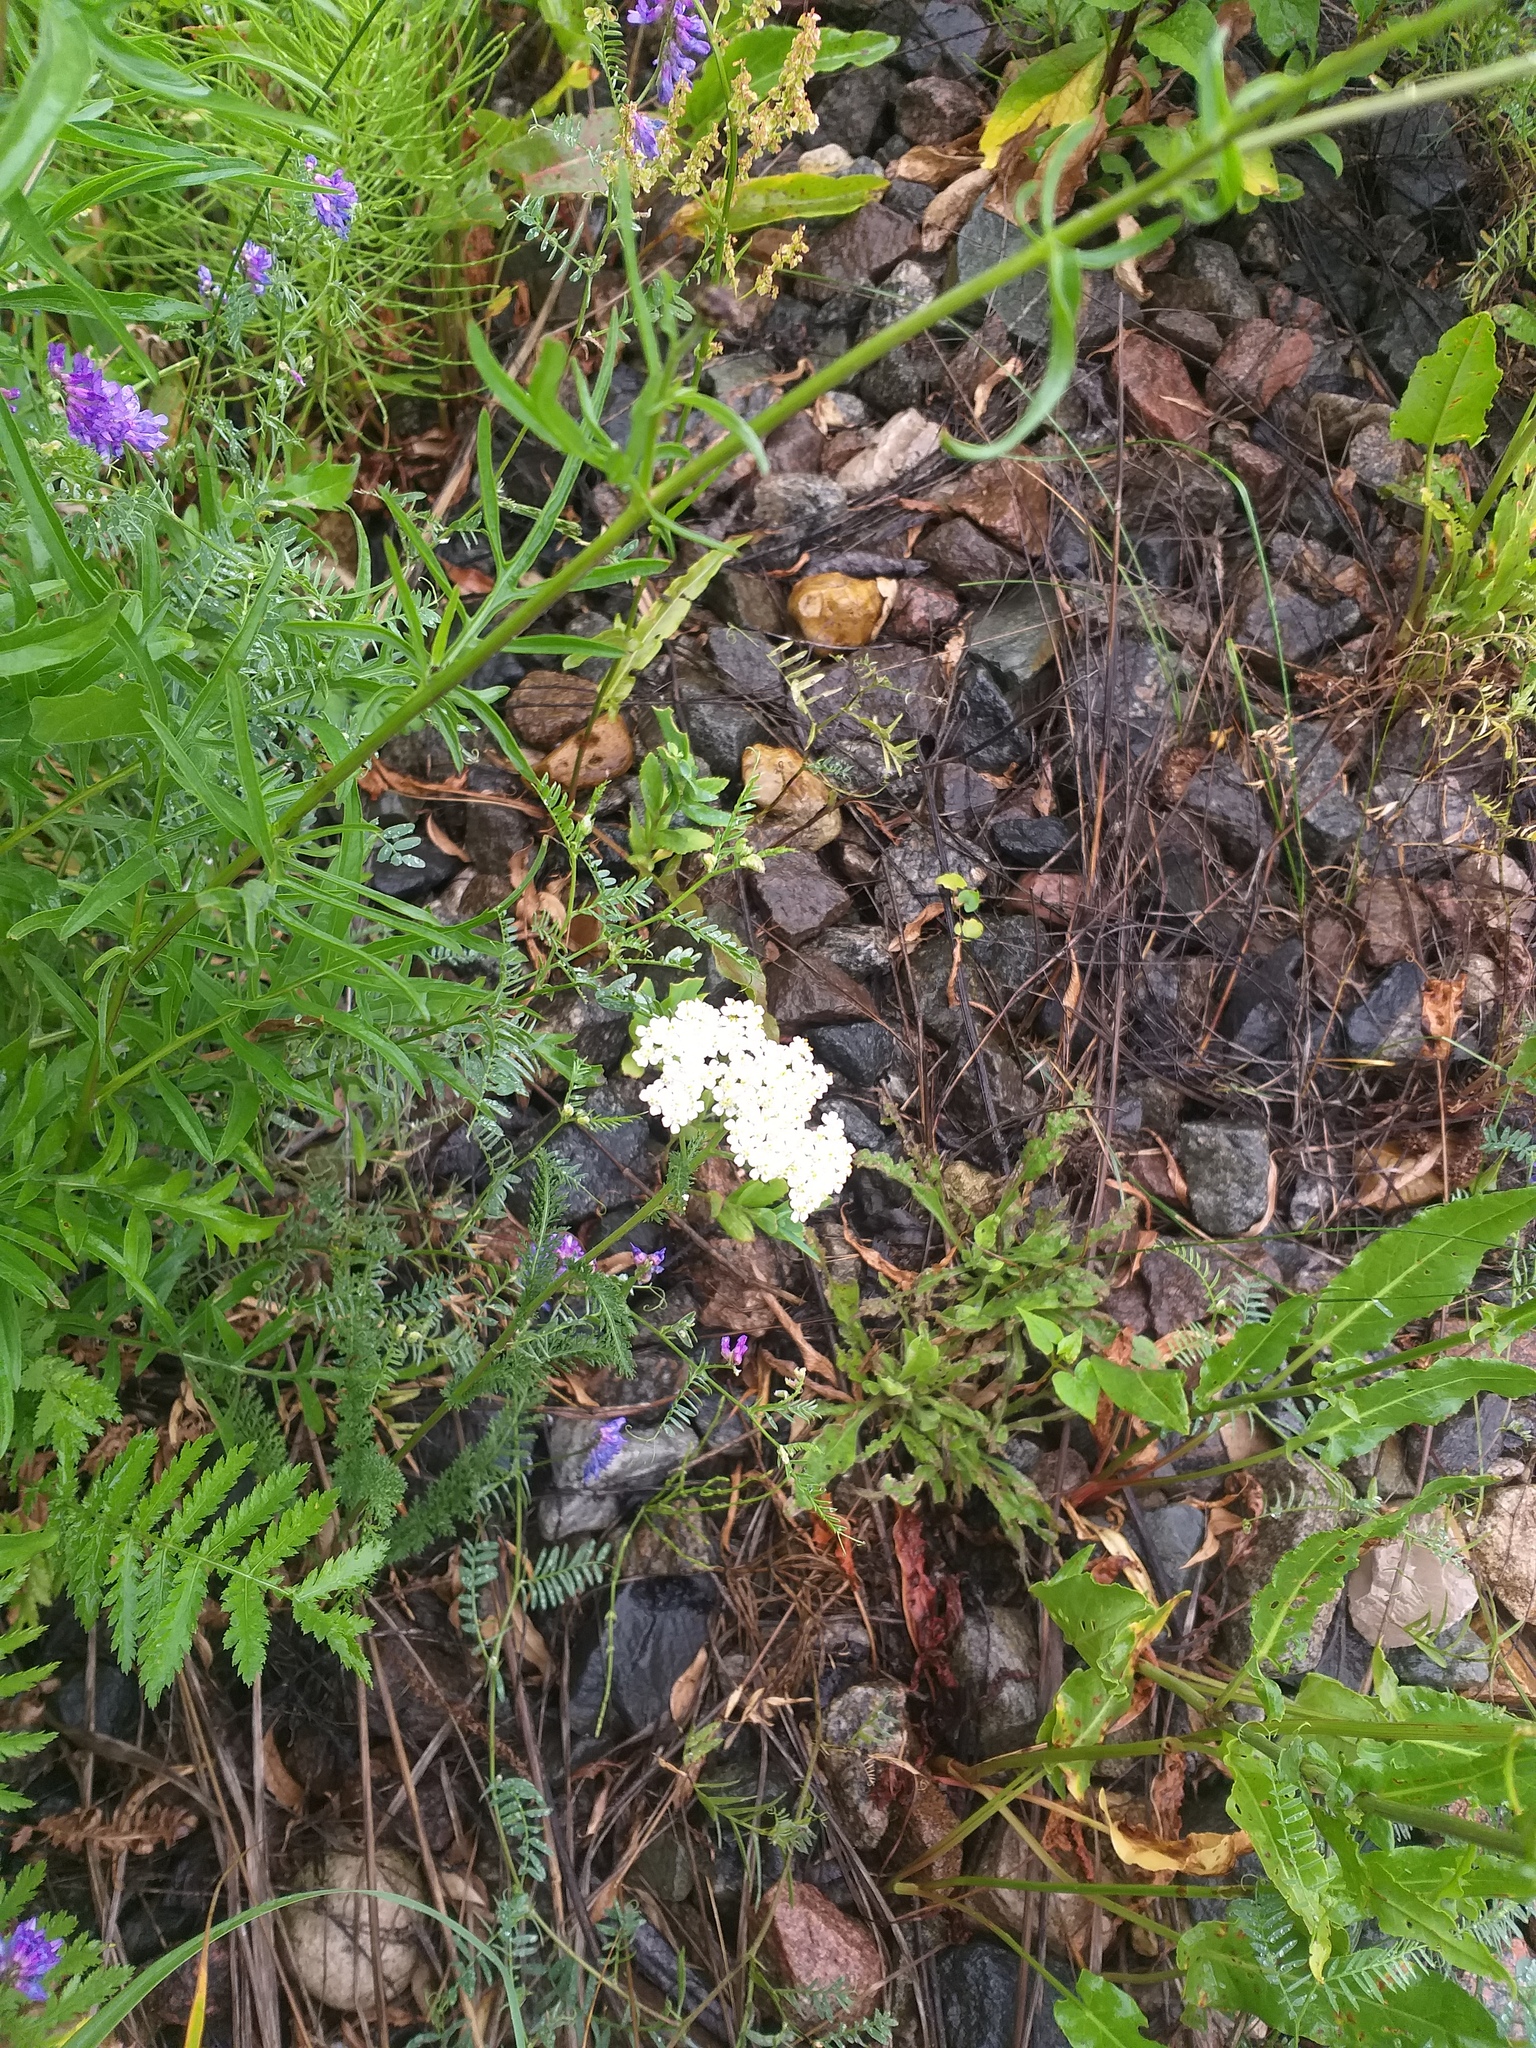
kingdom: Plantae
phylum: Tracheophyta
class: Magnoliopsida
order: Asterales
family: Asteraceae
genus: Achillea
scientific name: Achillea millefolium
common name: Yarrow
